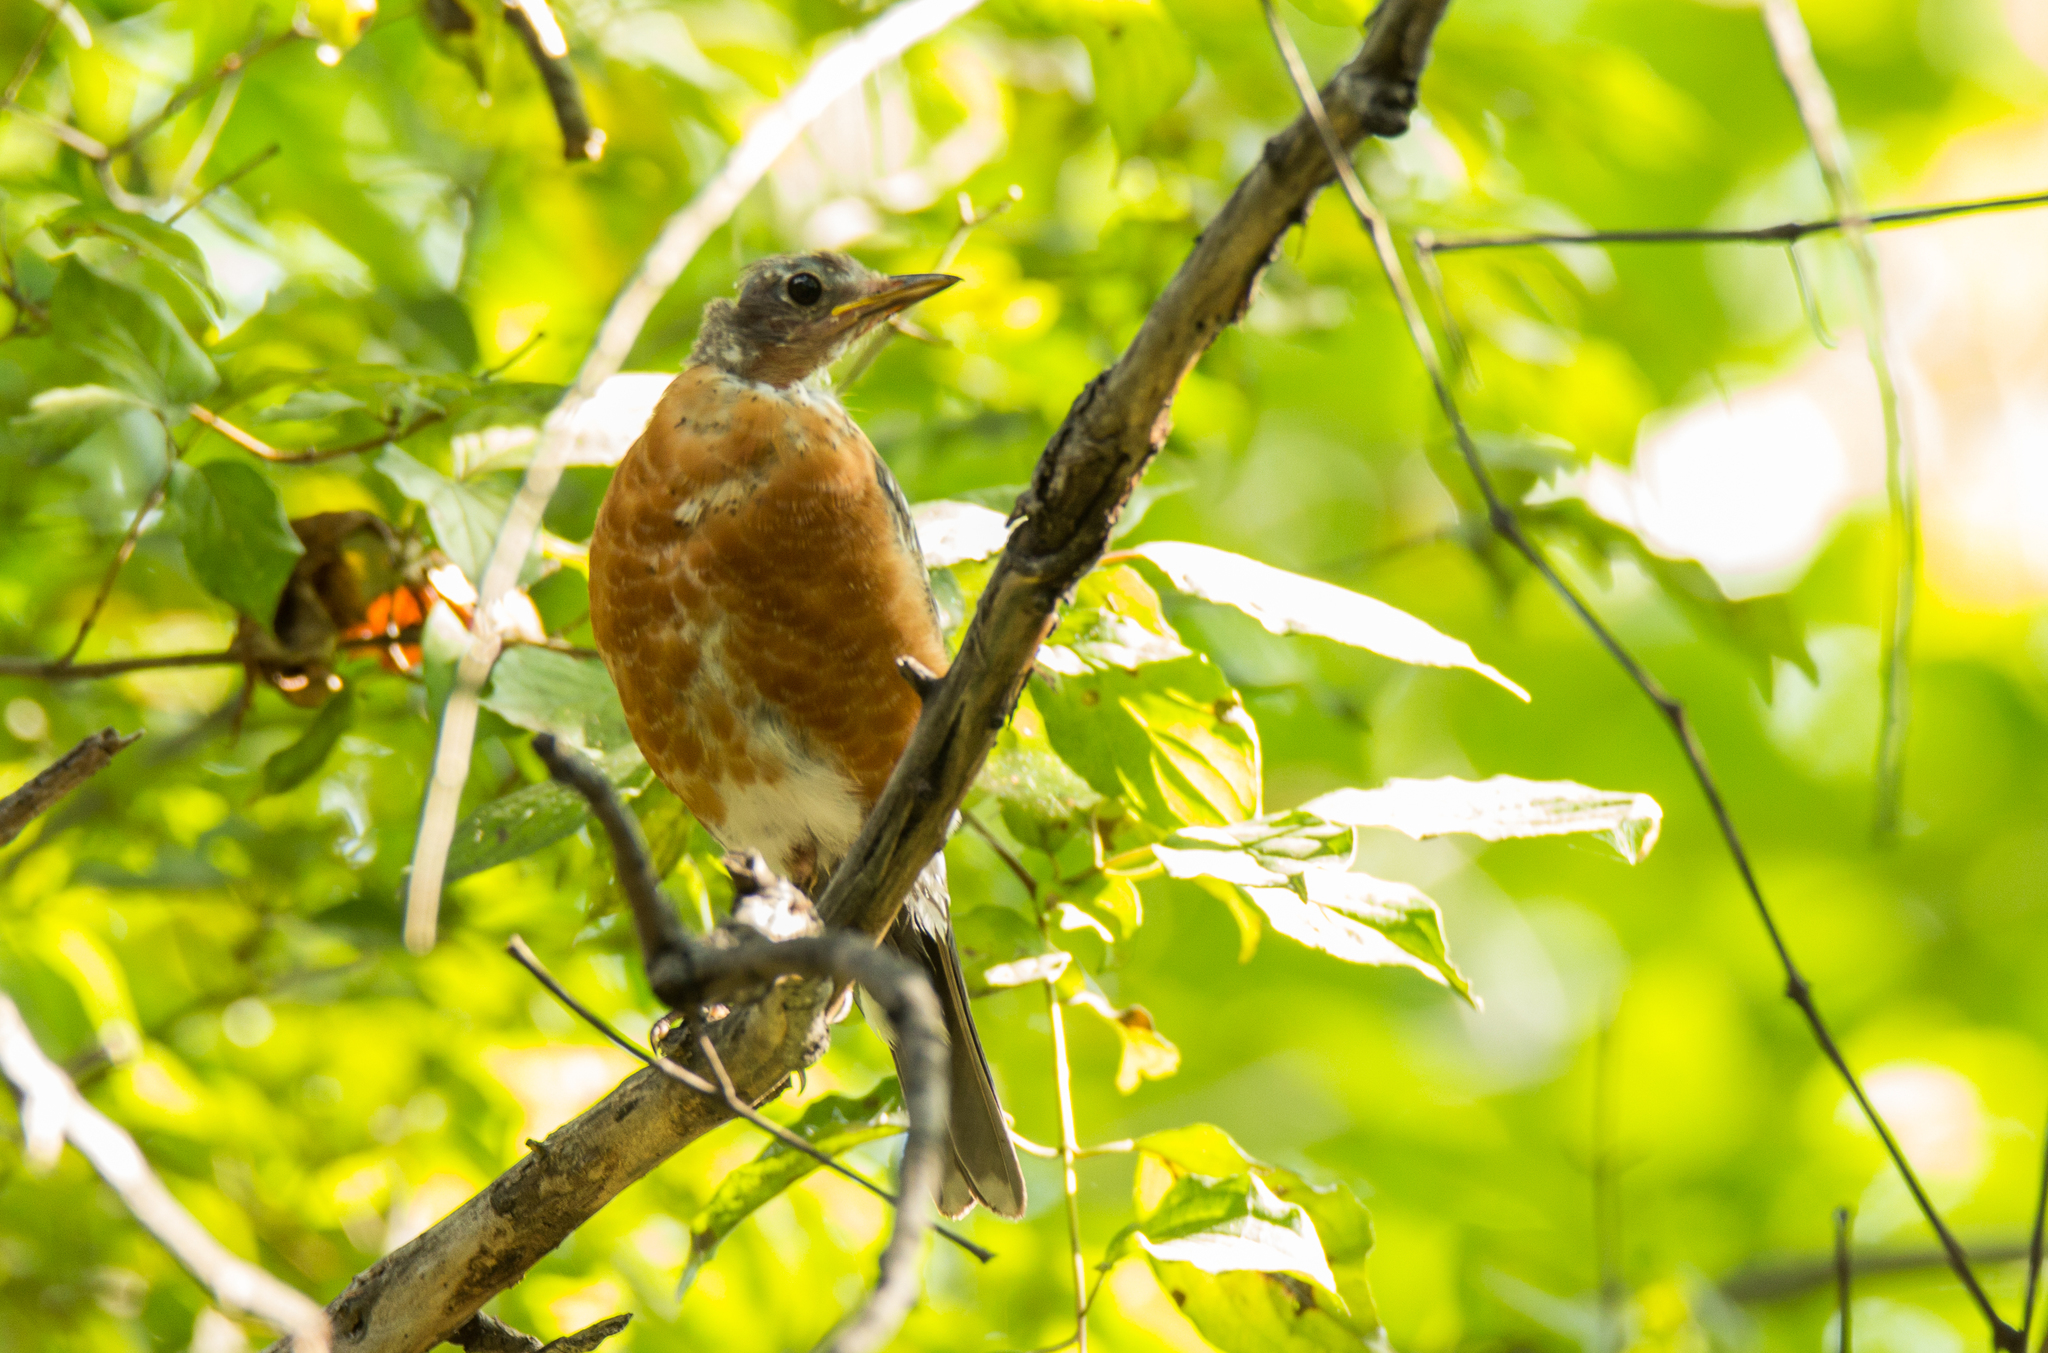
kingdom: Animalia
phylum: Chordata
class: Aves
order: Passeriformes
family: Turdidae
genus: Turdus
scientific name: Turdus migratorius
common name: American robin
